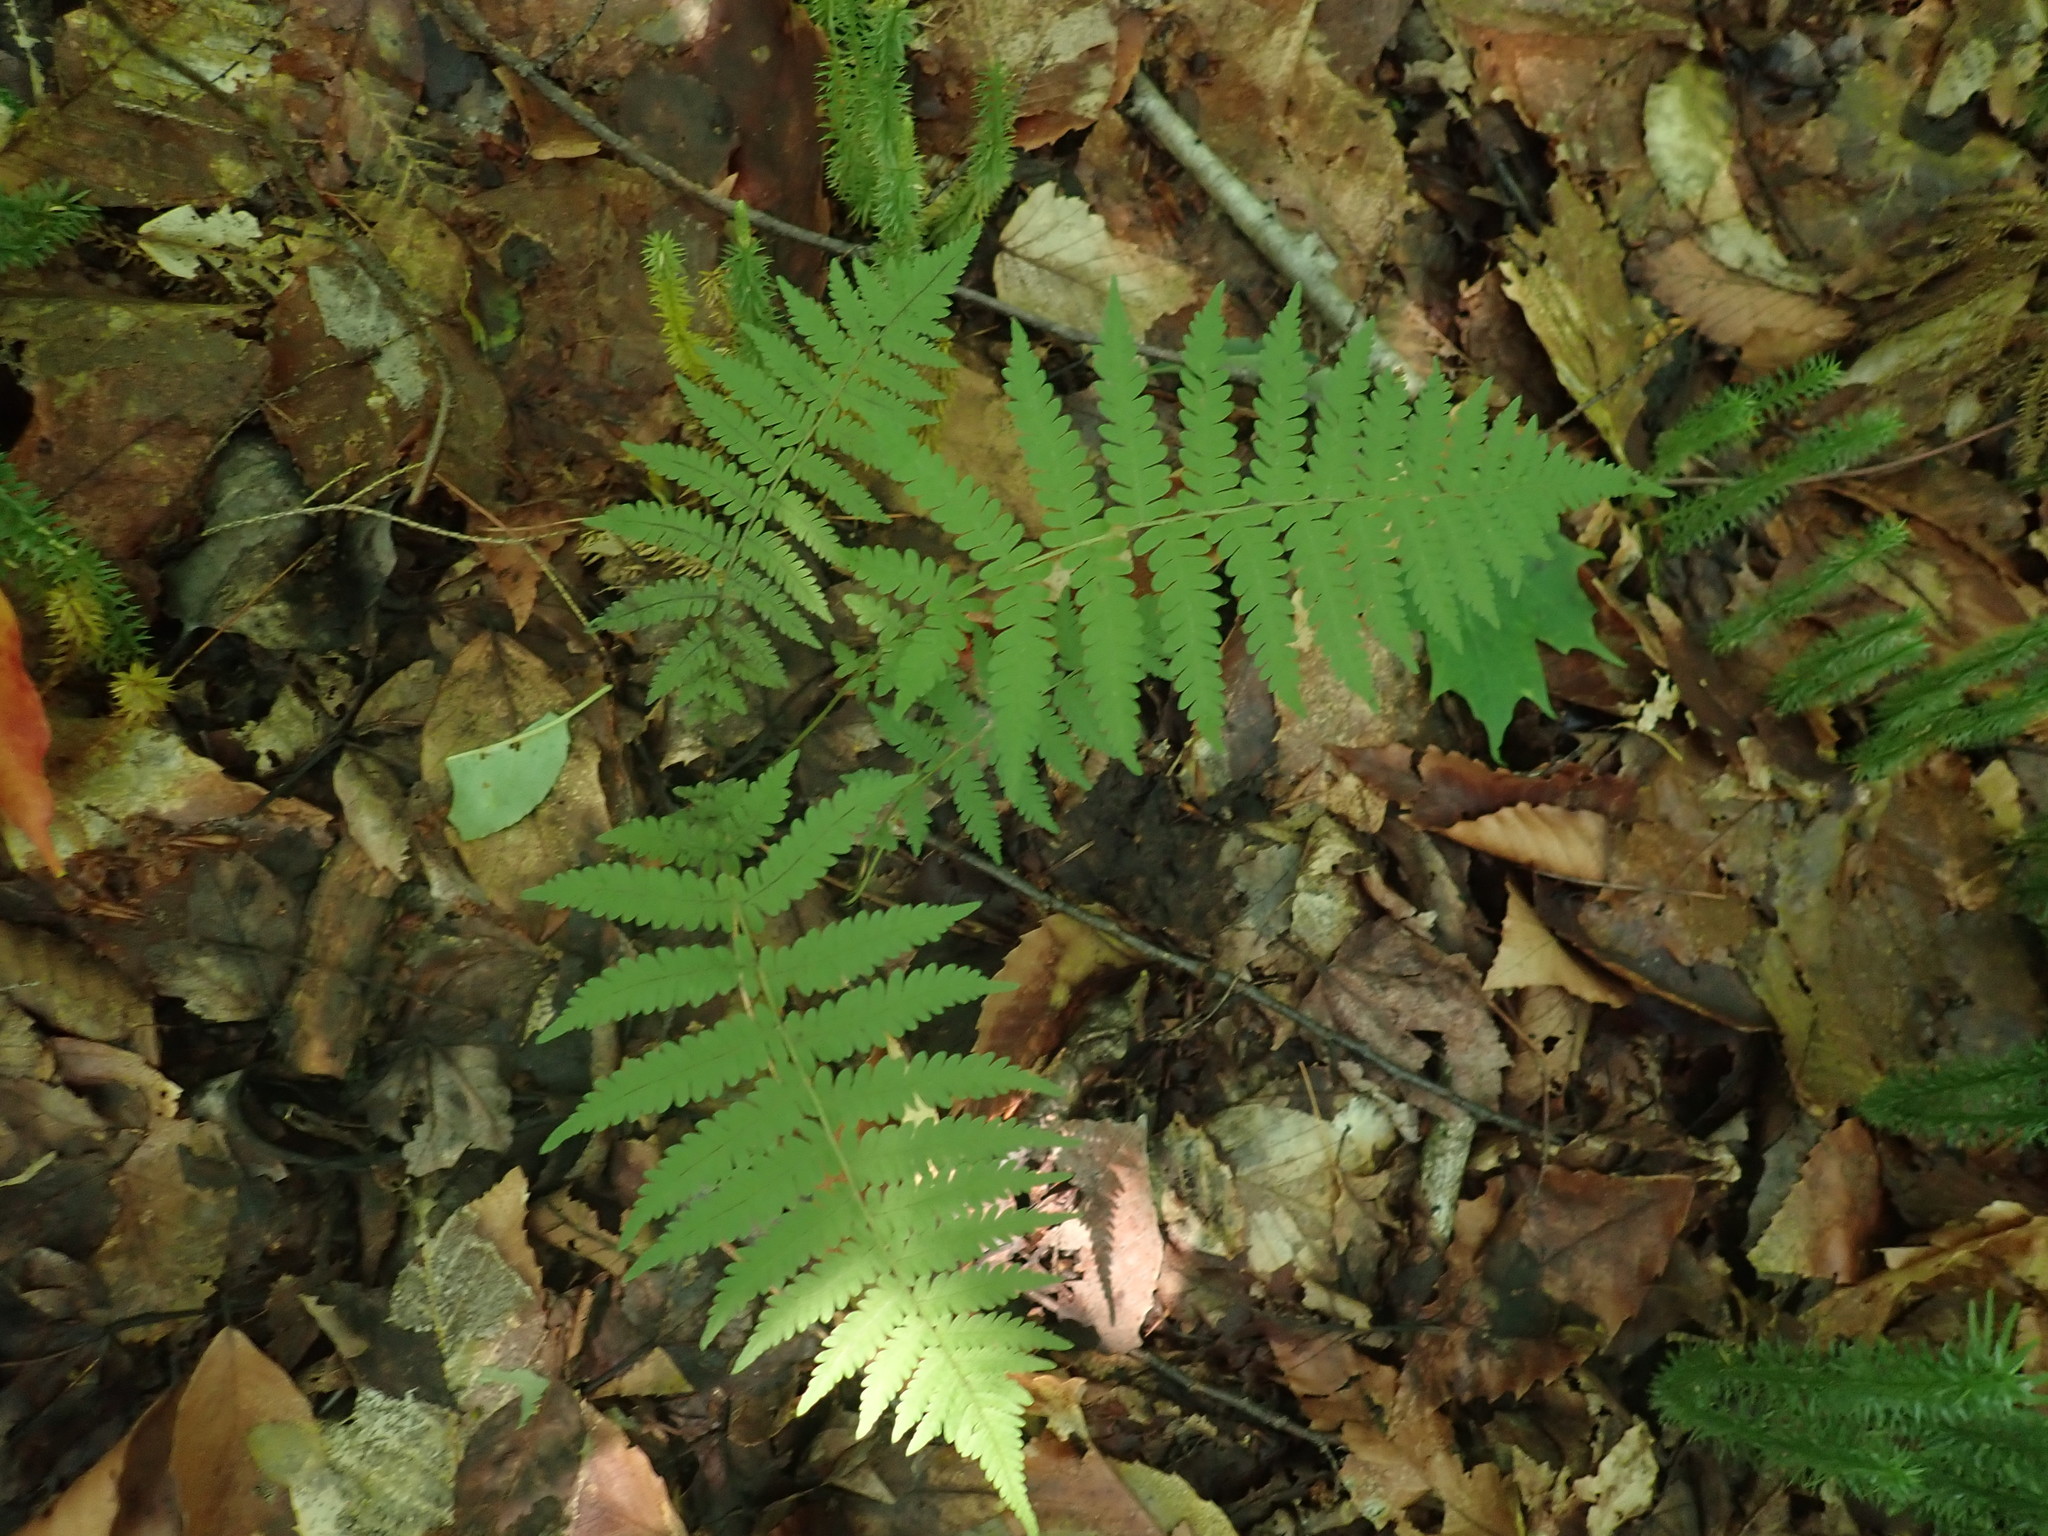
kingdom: Plantae
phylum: Tracheophyta
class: Polypodiopsida
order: Polypodiales
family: Thelypteridaceae
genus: Amauropelta
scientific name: Amauropelta noveboracensis
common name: New york fern
